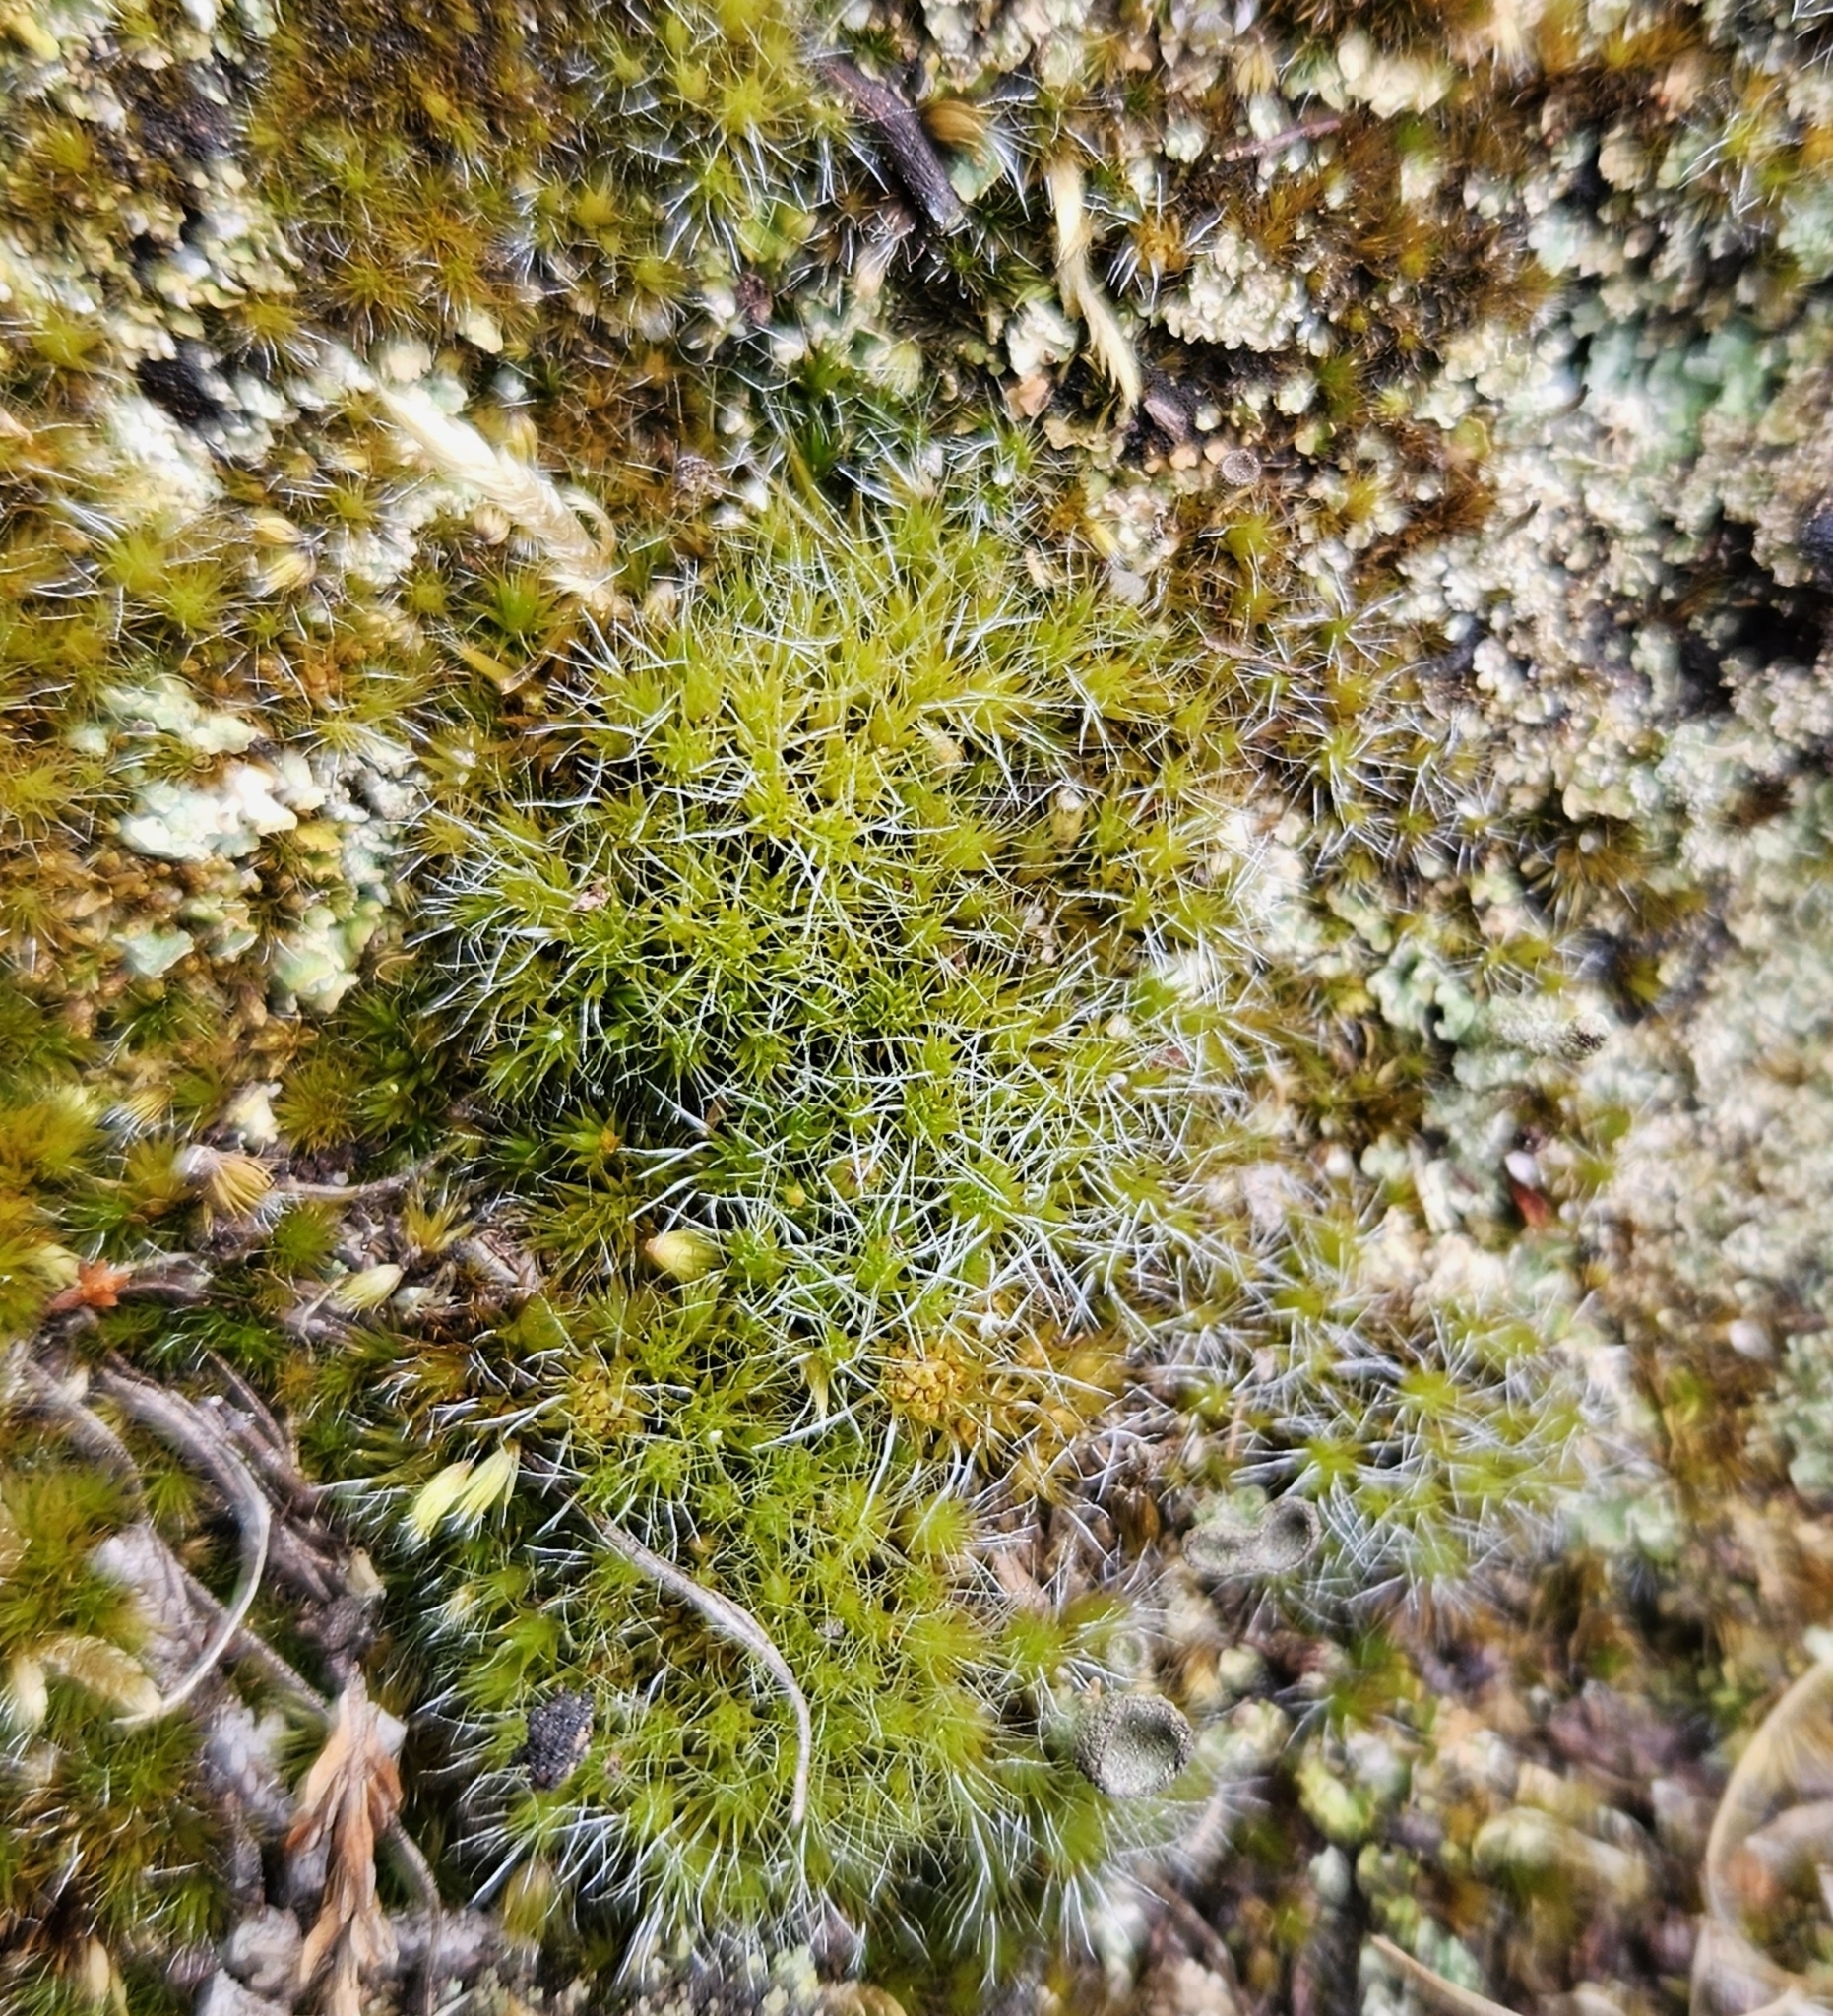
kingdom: Plantae
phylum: Bryophyta
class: Bryopsida
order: Dicranales
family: Leucobryaceae
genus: Campylopus
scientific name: Campylopus introflexus
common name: Heath star moss
